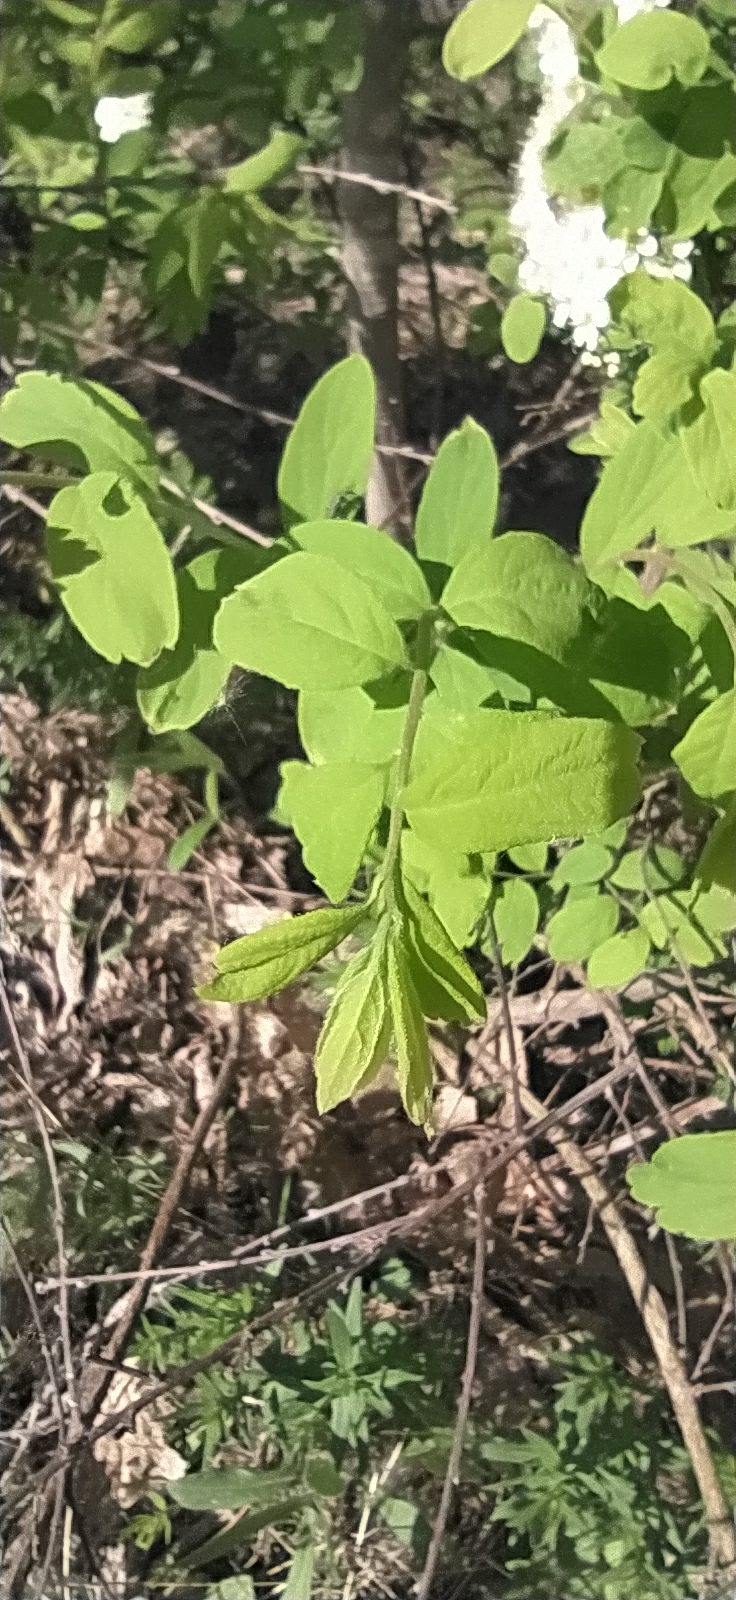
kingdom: Plantae
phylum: Tracheophyta
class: Magnoliopsida
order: Rosales
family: Rosaceae
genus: Spiraea
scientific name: Spiraea media
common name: Russian spiraea
